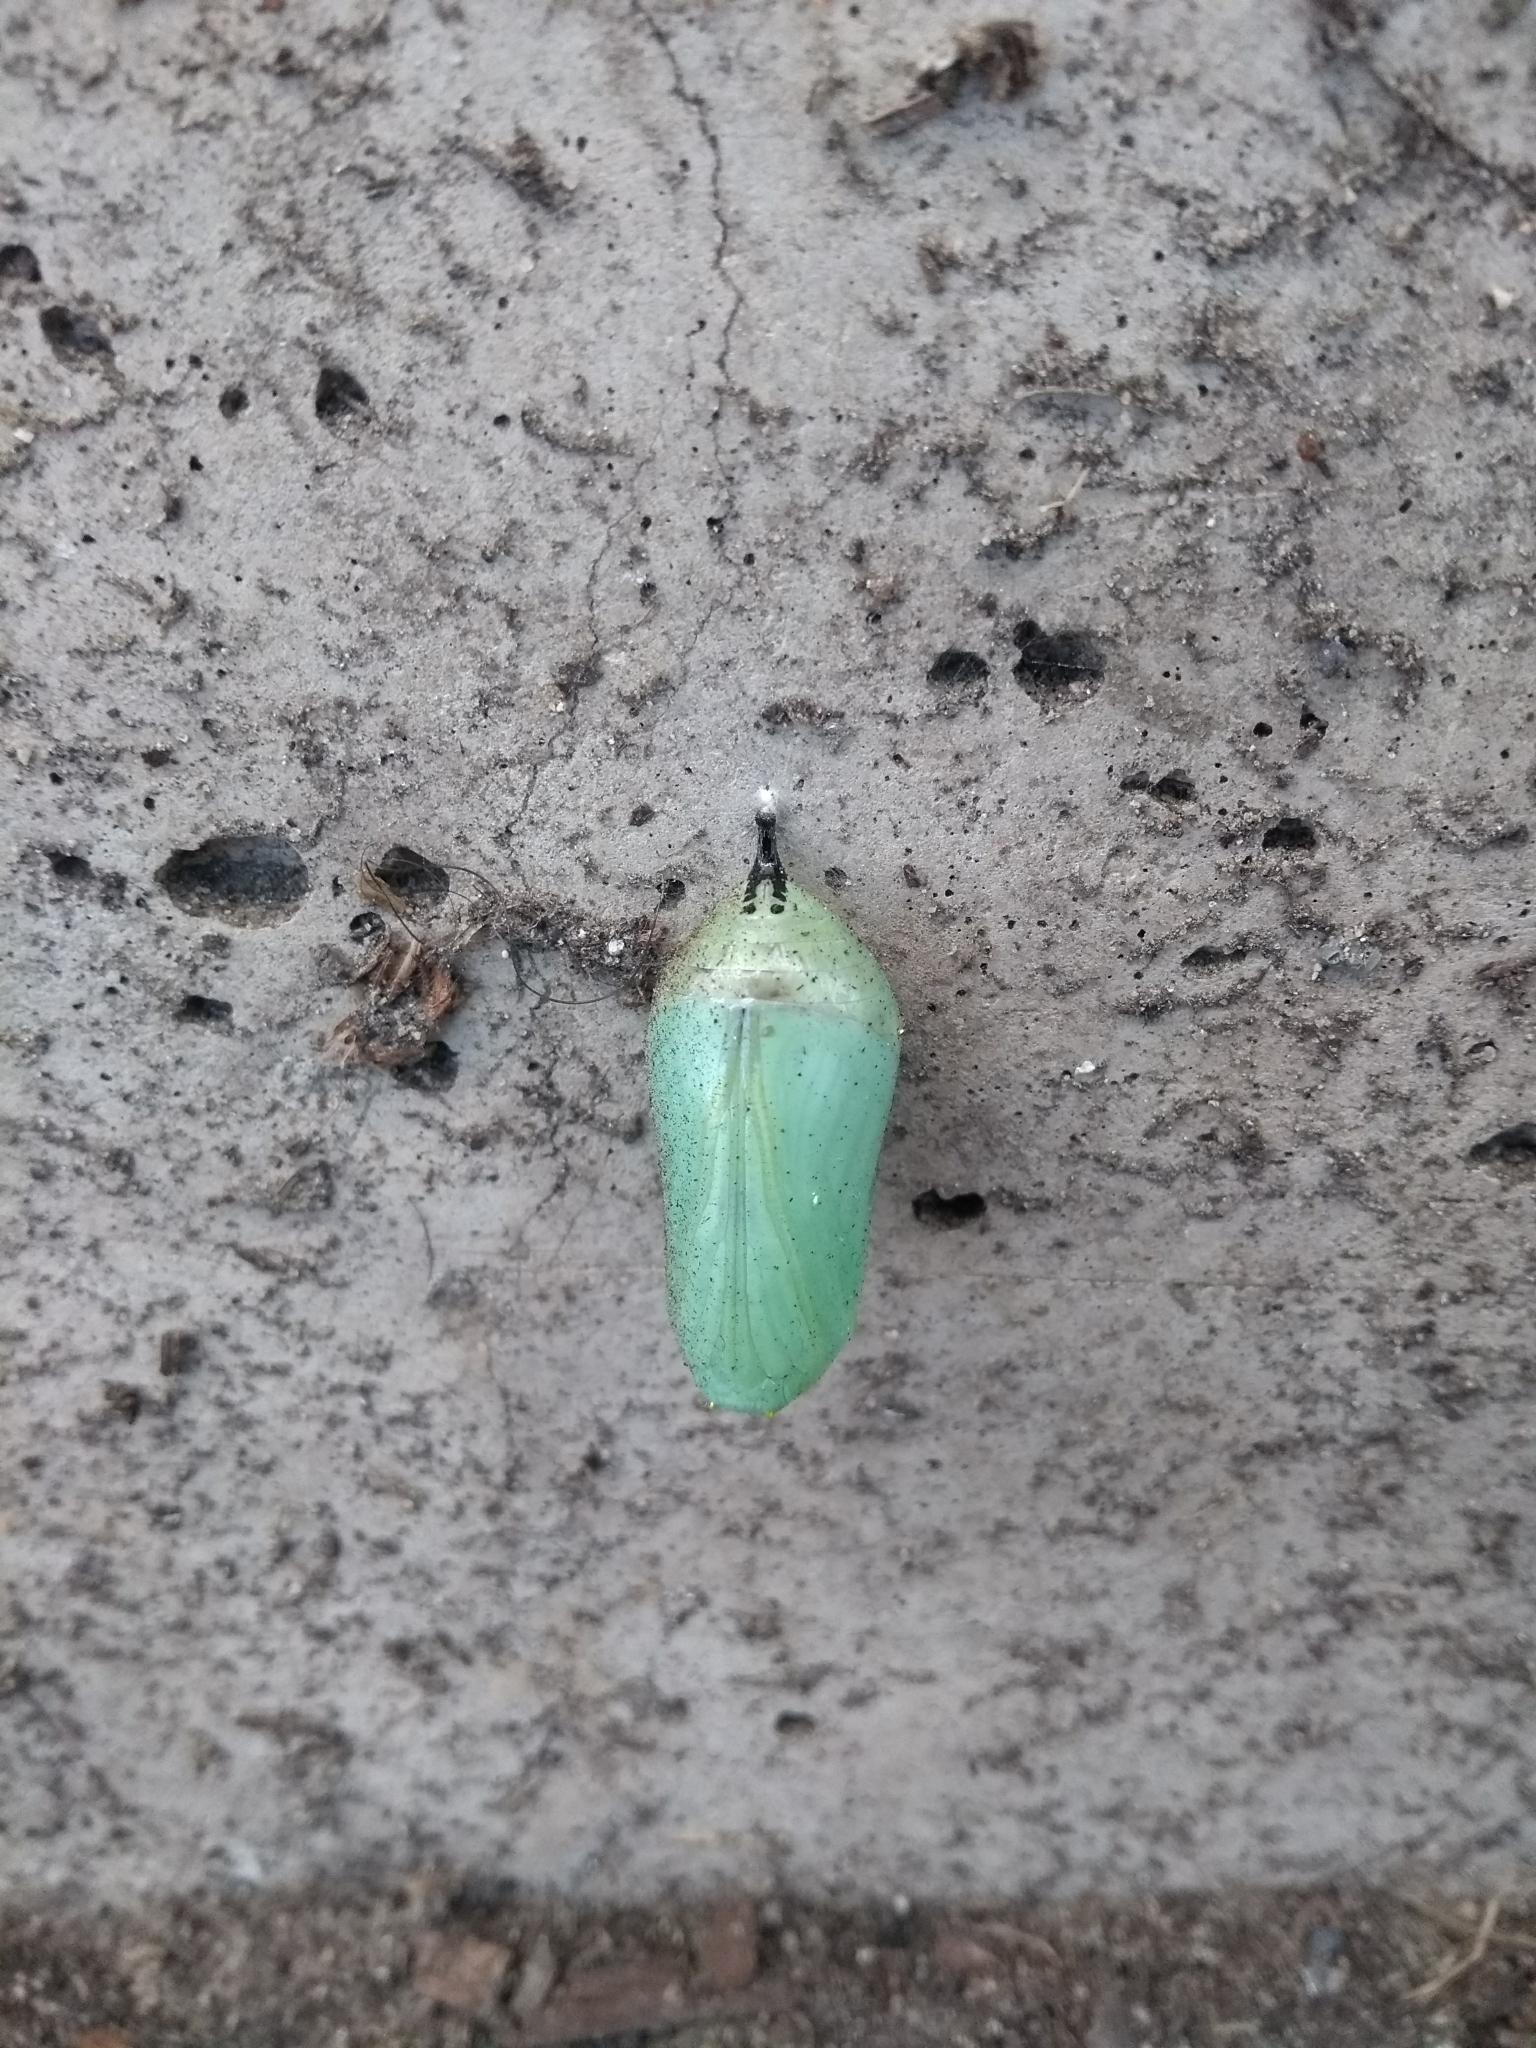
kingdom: Animalia
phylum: Arthropoda
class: Insecta
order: Lepidoptera
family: Nymphalidae
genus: Danaus
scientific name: Danaus plexippus
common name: Monarch
